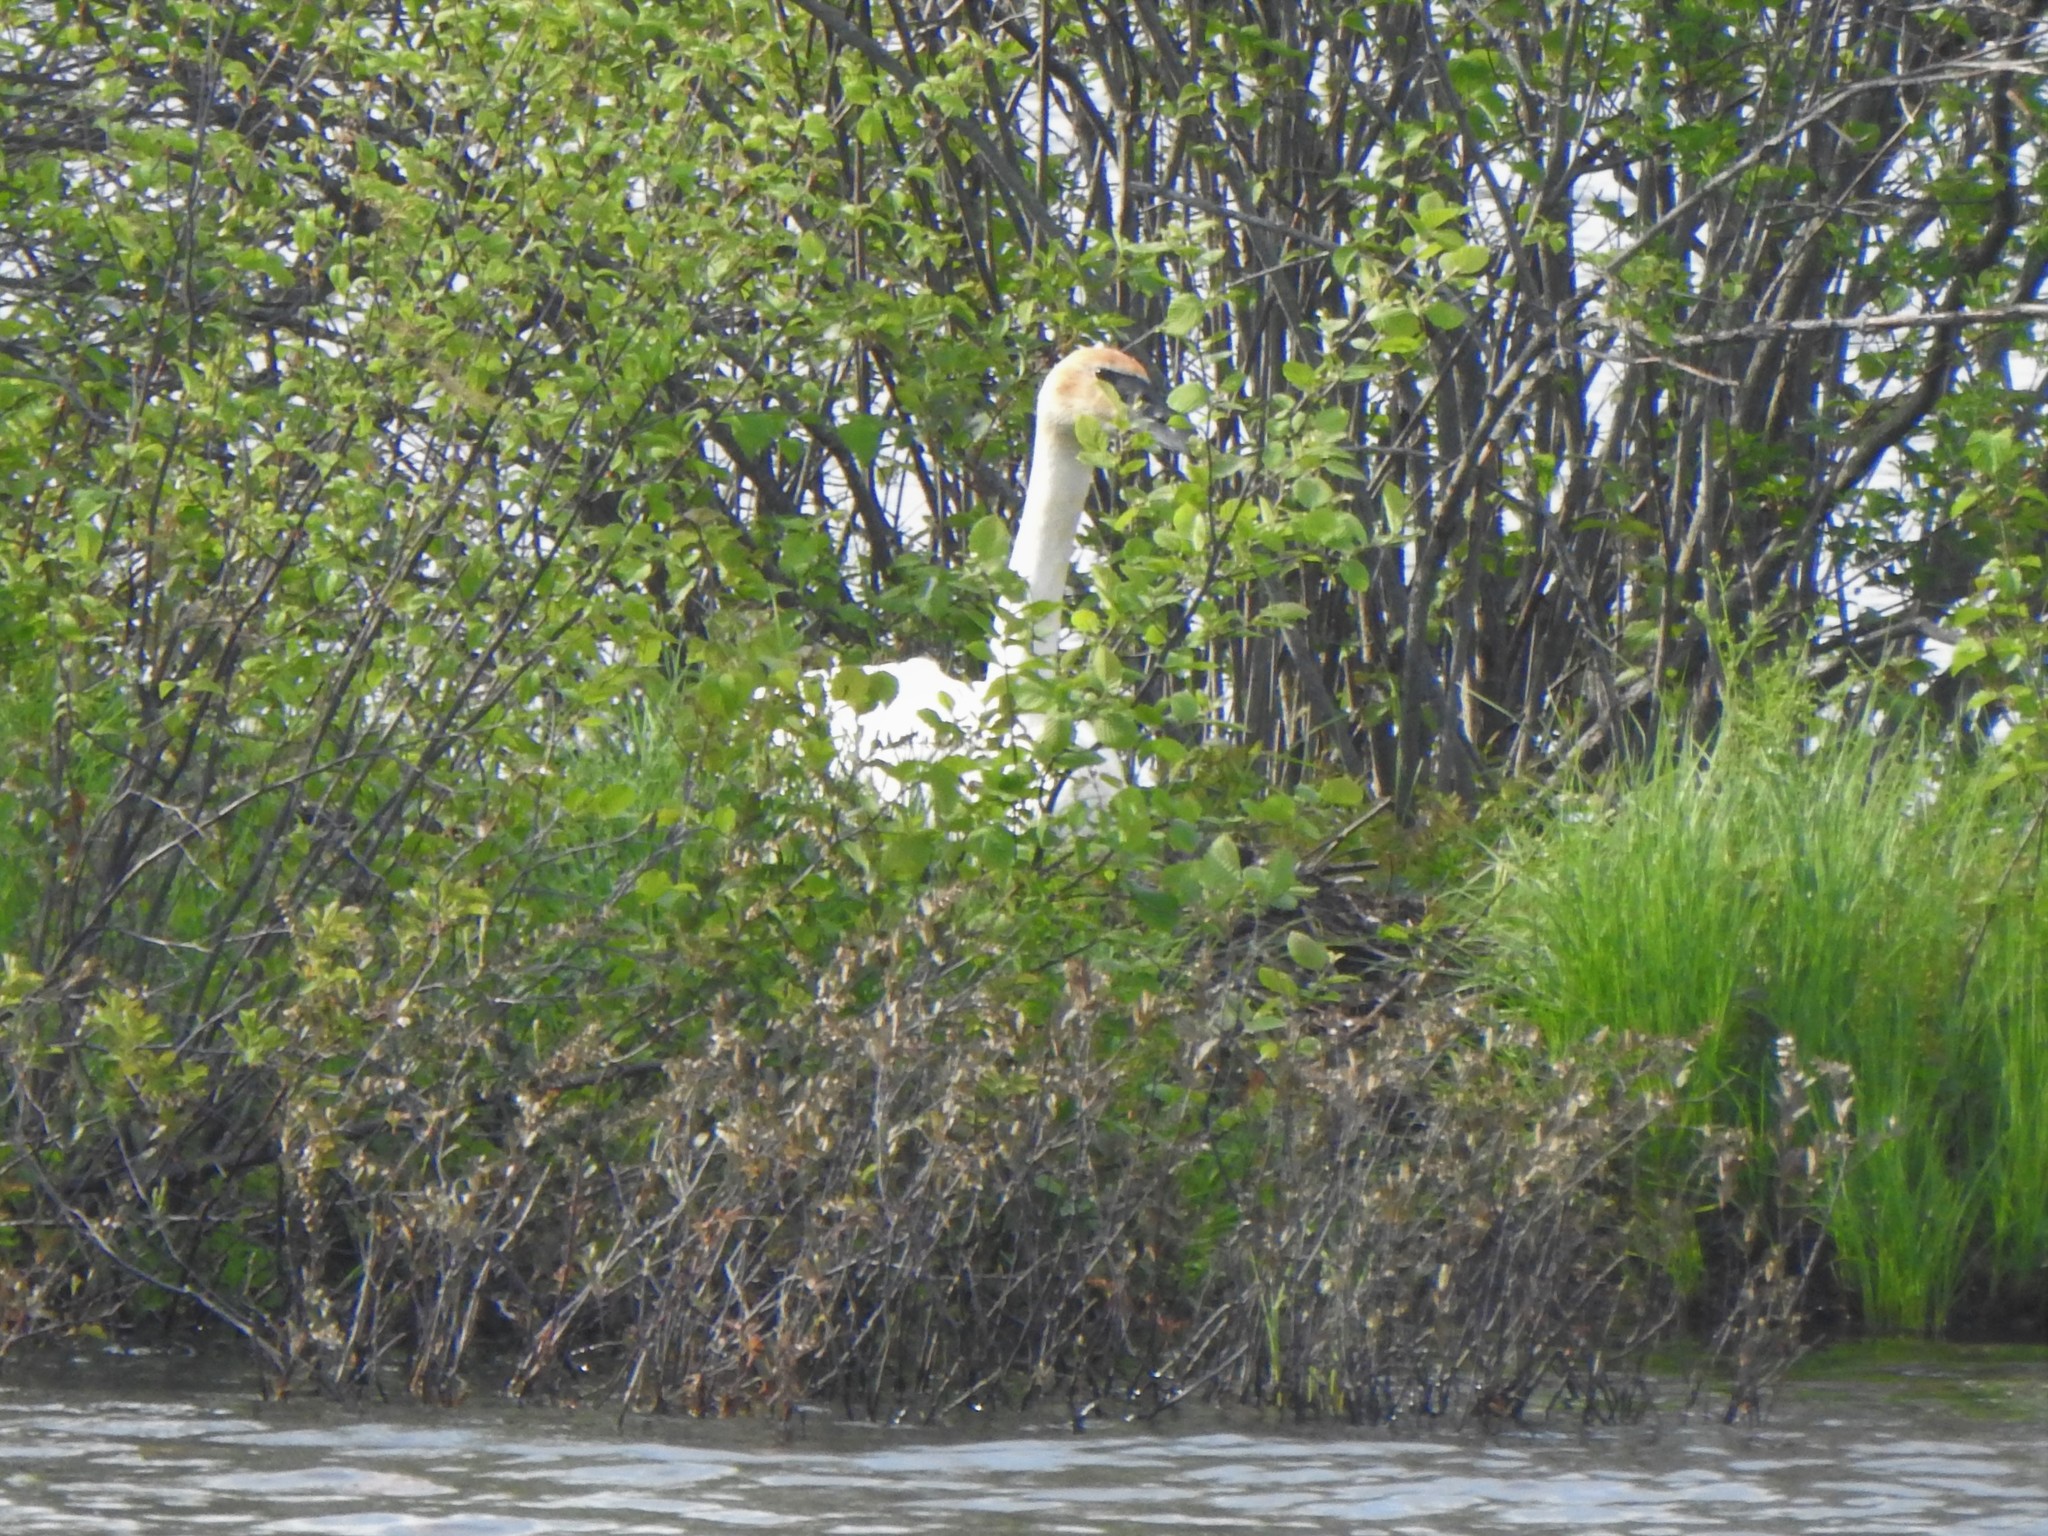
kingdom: Animalia
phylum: Chordata
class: Aves
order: Anseriformes
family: Anatidae
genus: Cygnus
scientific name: Cygnus buccinator
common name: Trumpeter swan
